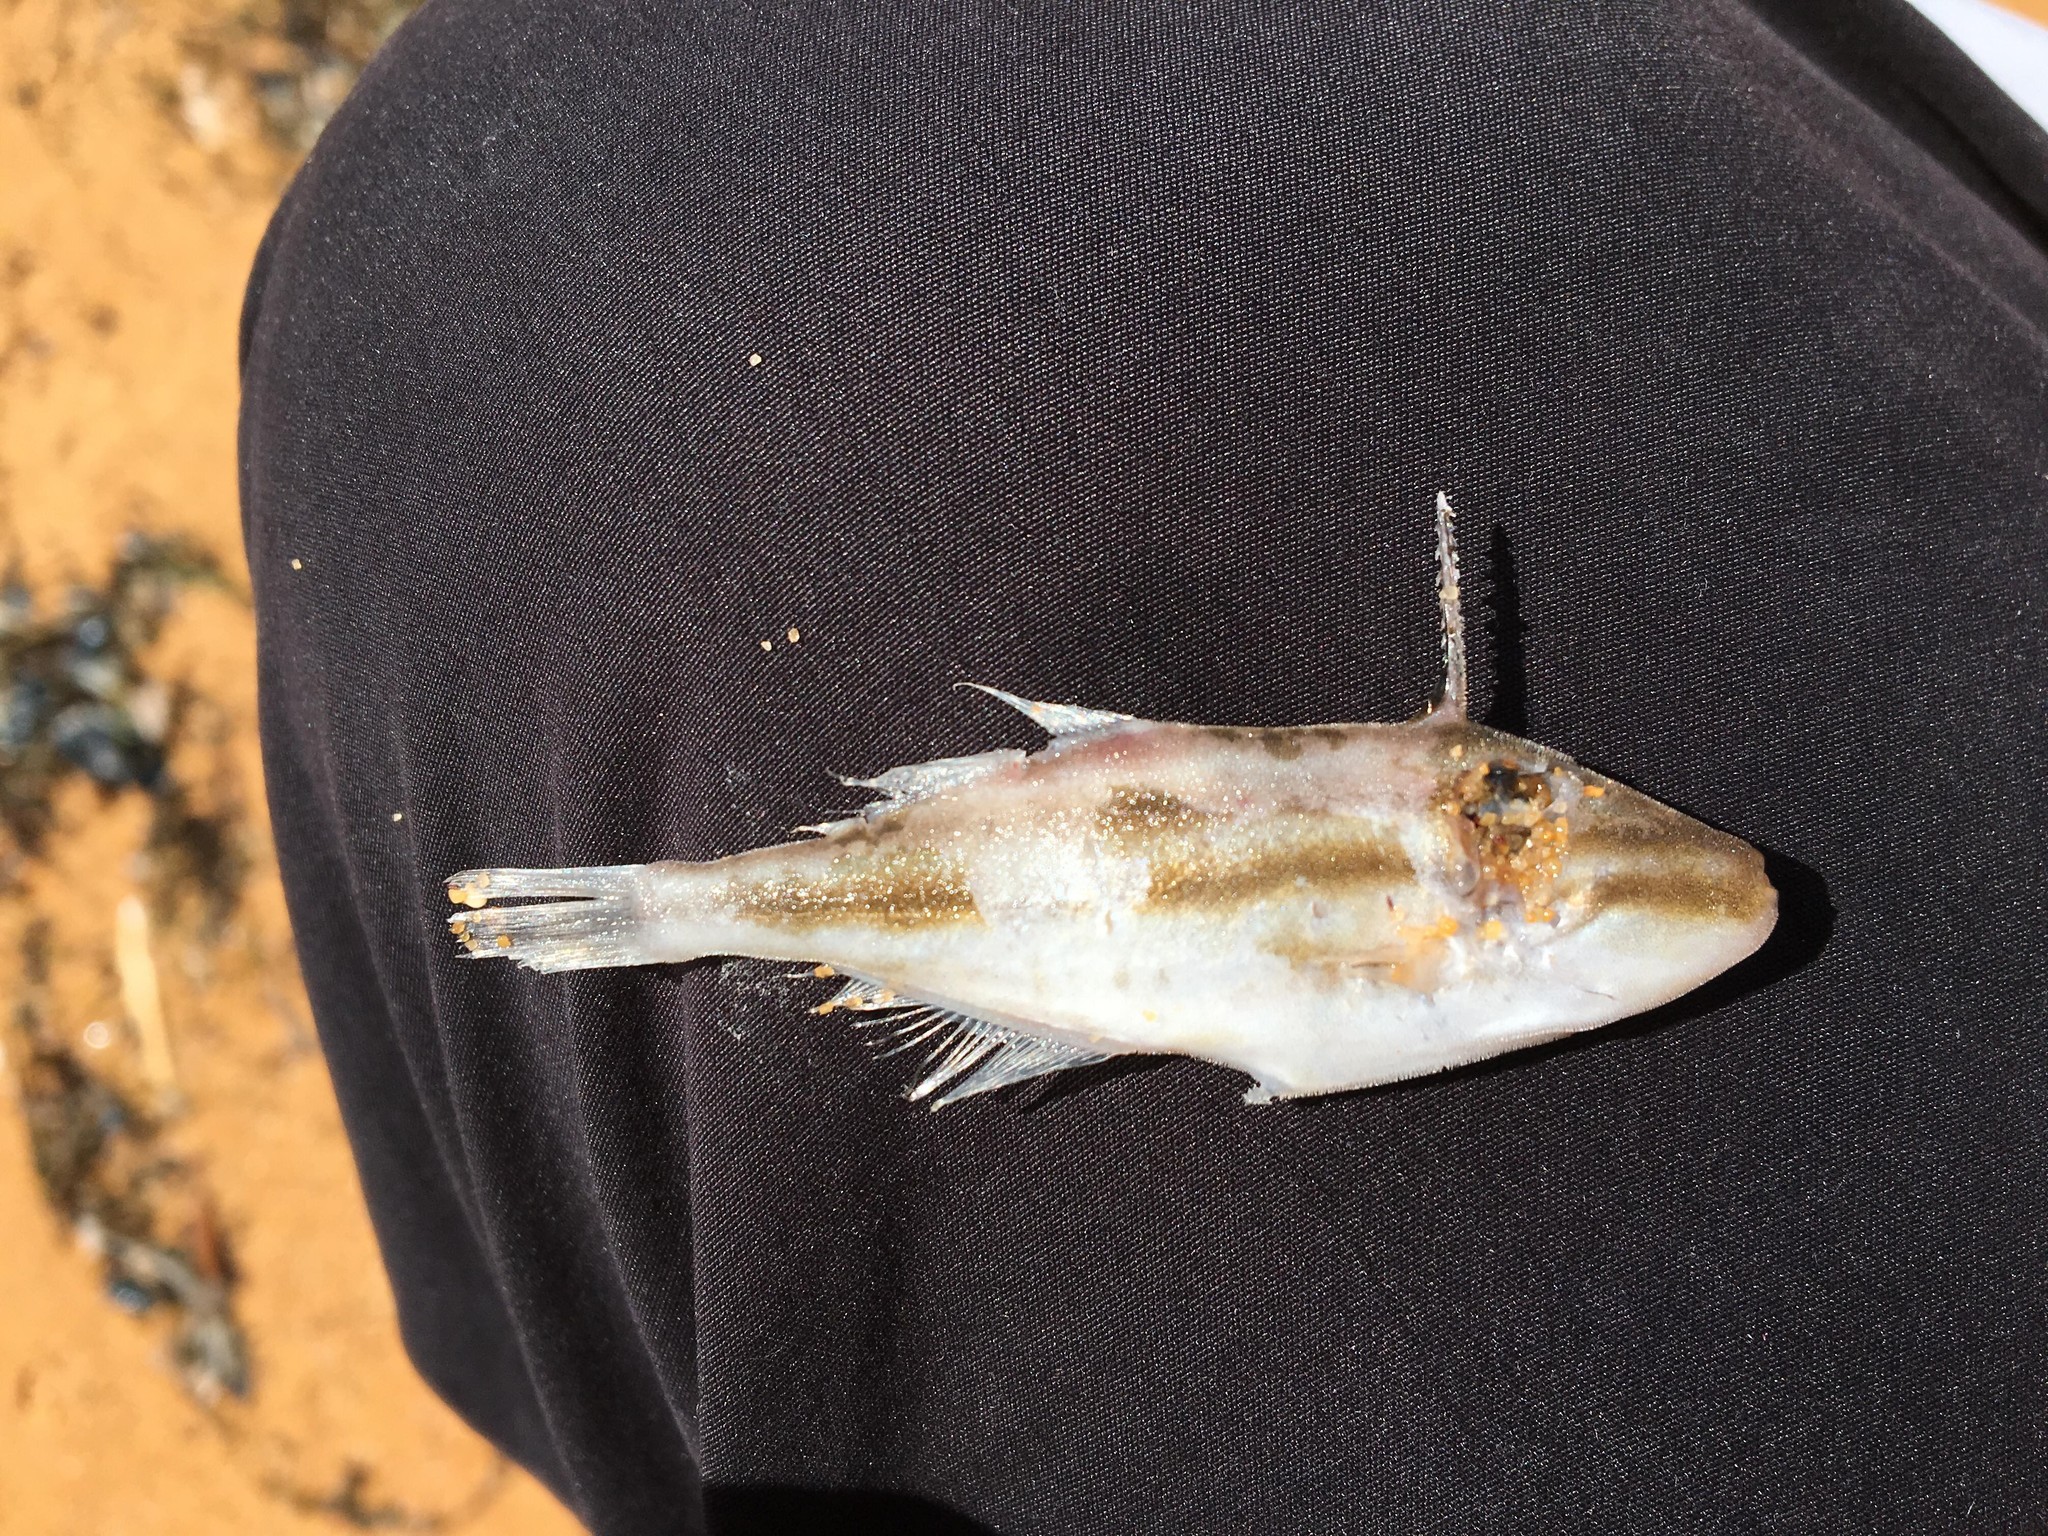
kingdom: Animalia
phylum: Chordata
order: Tetraodontiformes
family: Monacanthidae
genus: Nelusetta
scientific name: Nelusetta ayraud
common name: Chinaman leatherjacket
